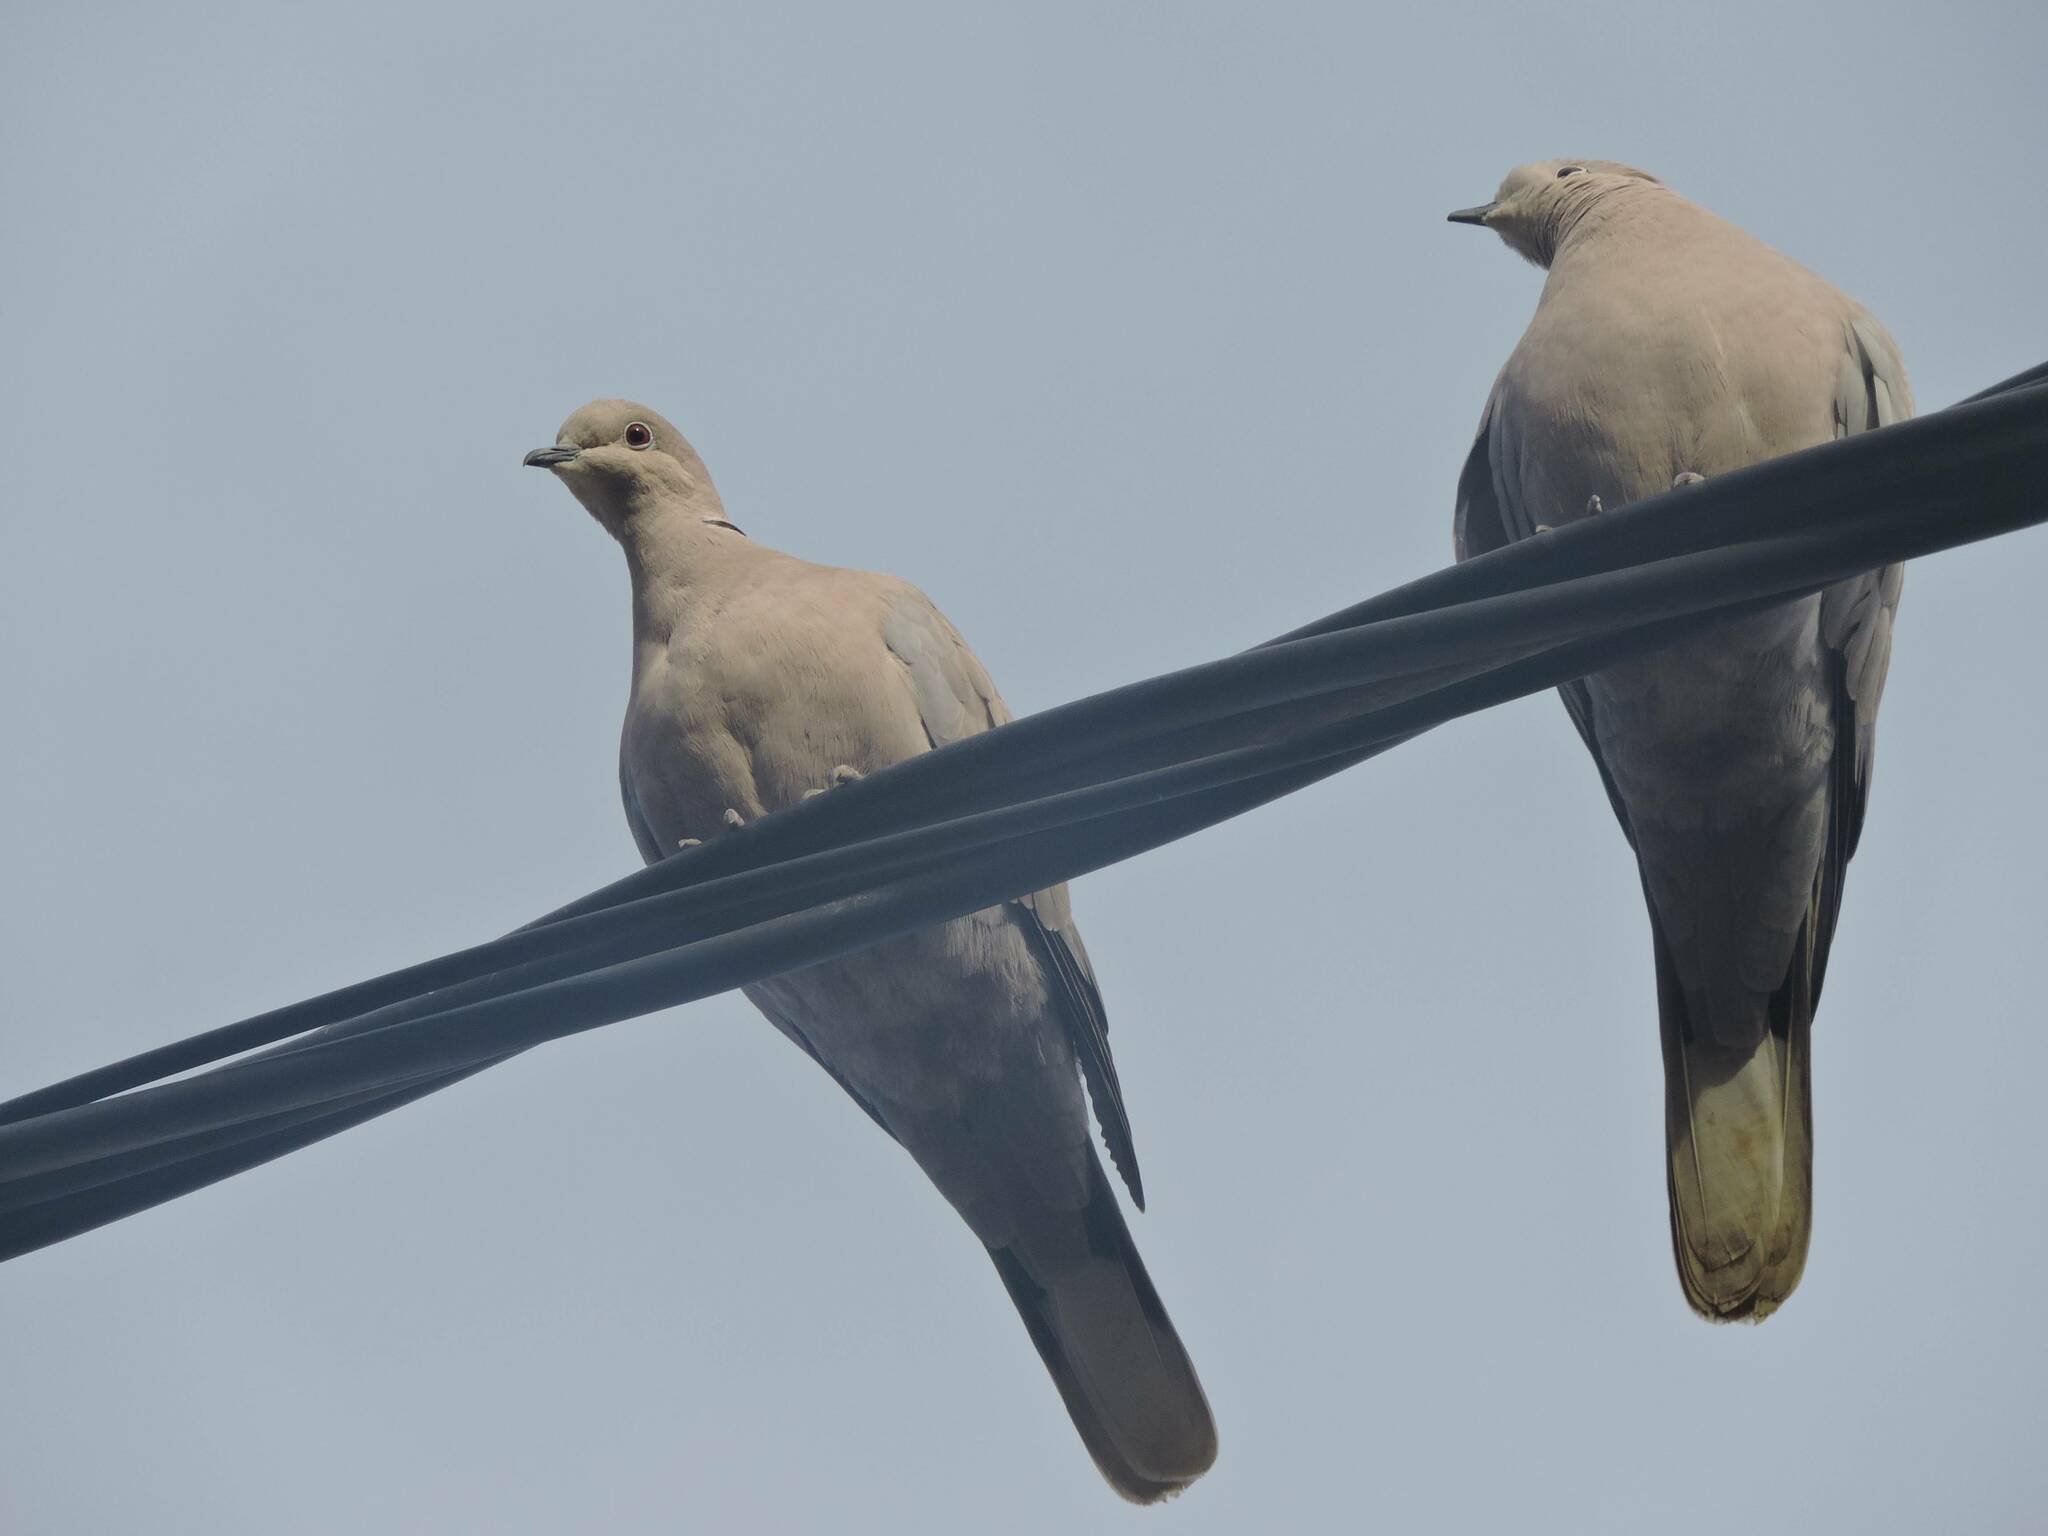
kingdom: Animalia
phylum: Chordata
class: Aves
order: Columbiformes
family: Columbidae
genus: Streptopelia
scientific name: Streptopelia decaocto
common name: Eurasian collared dove
